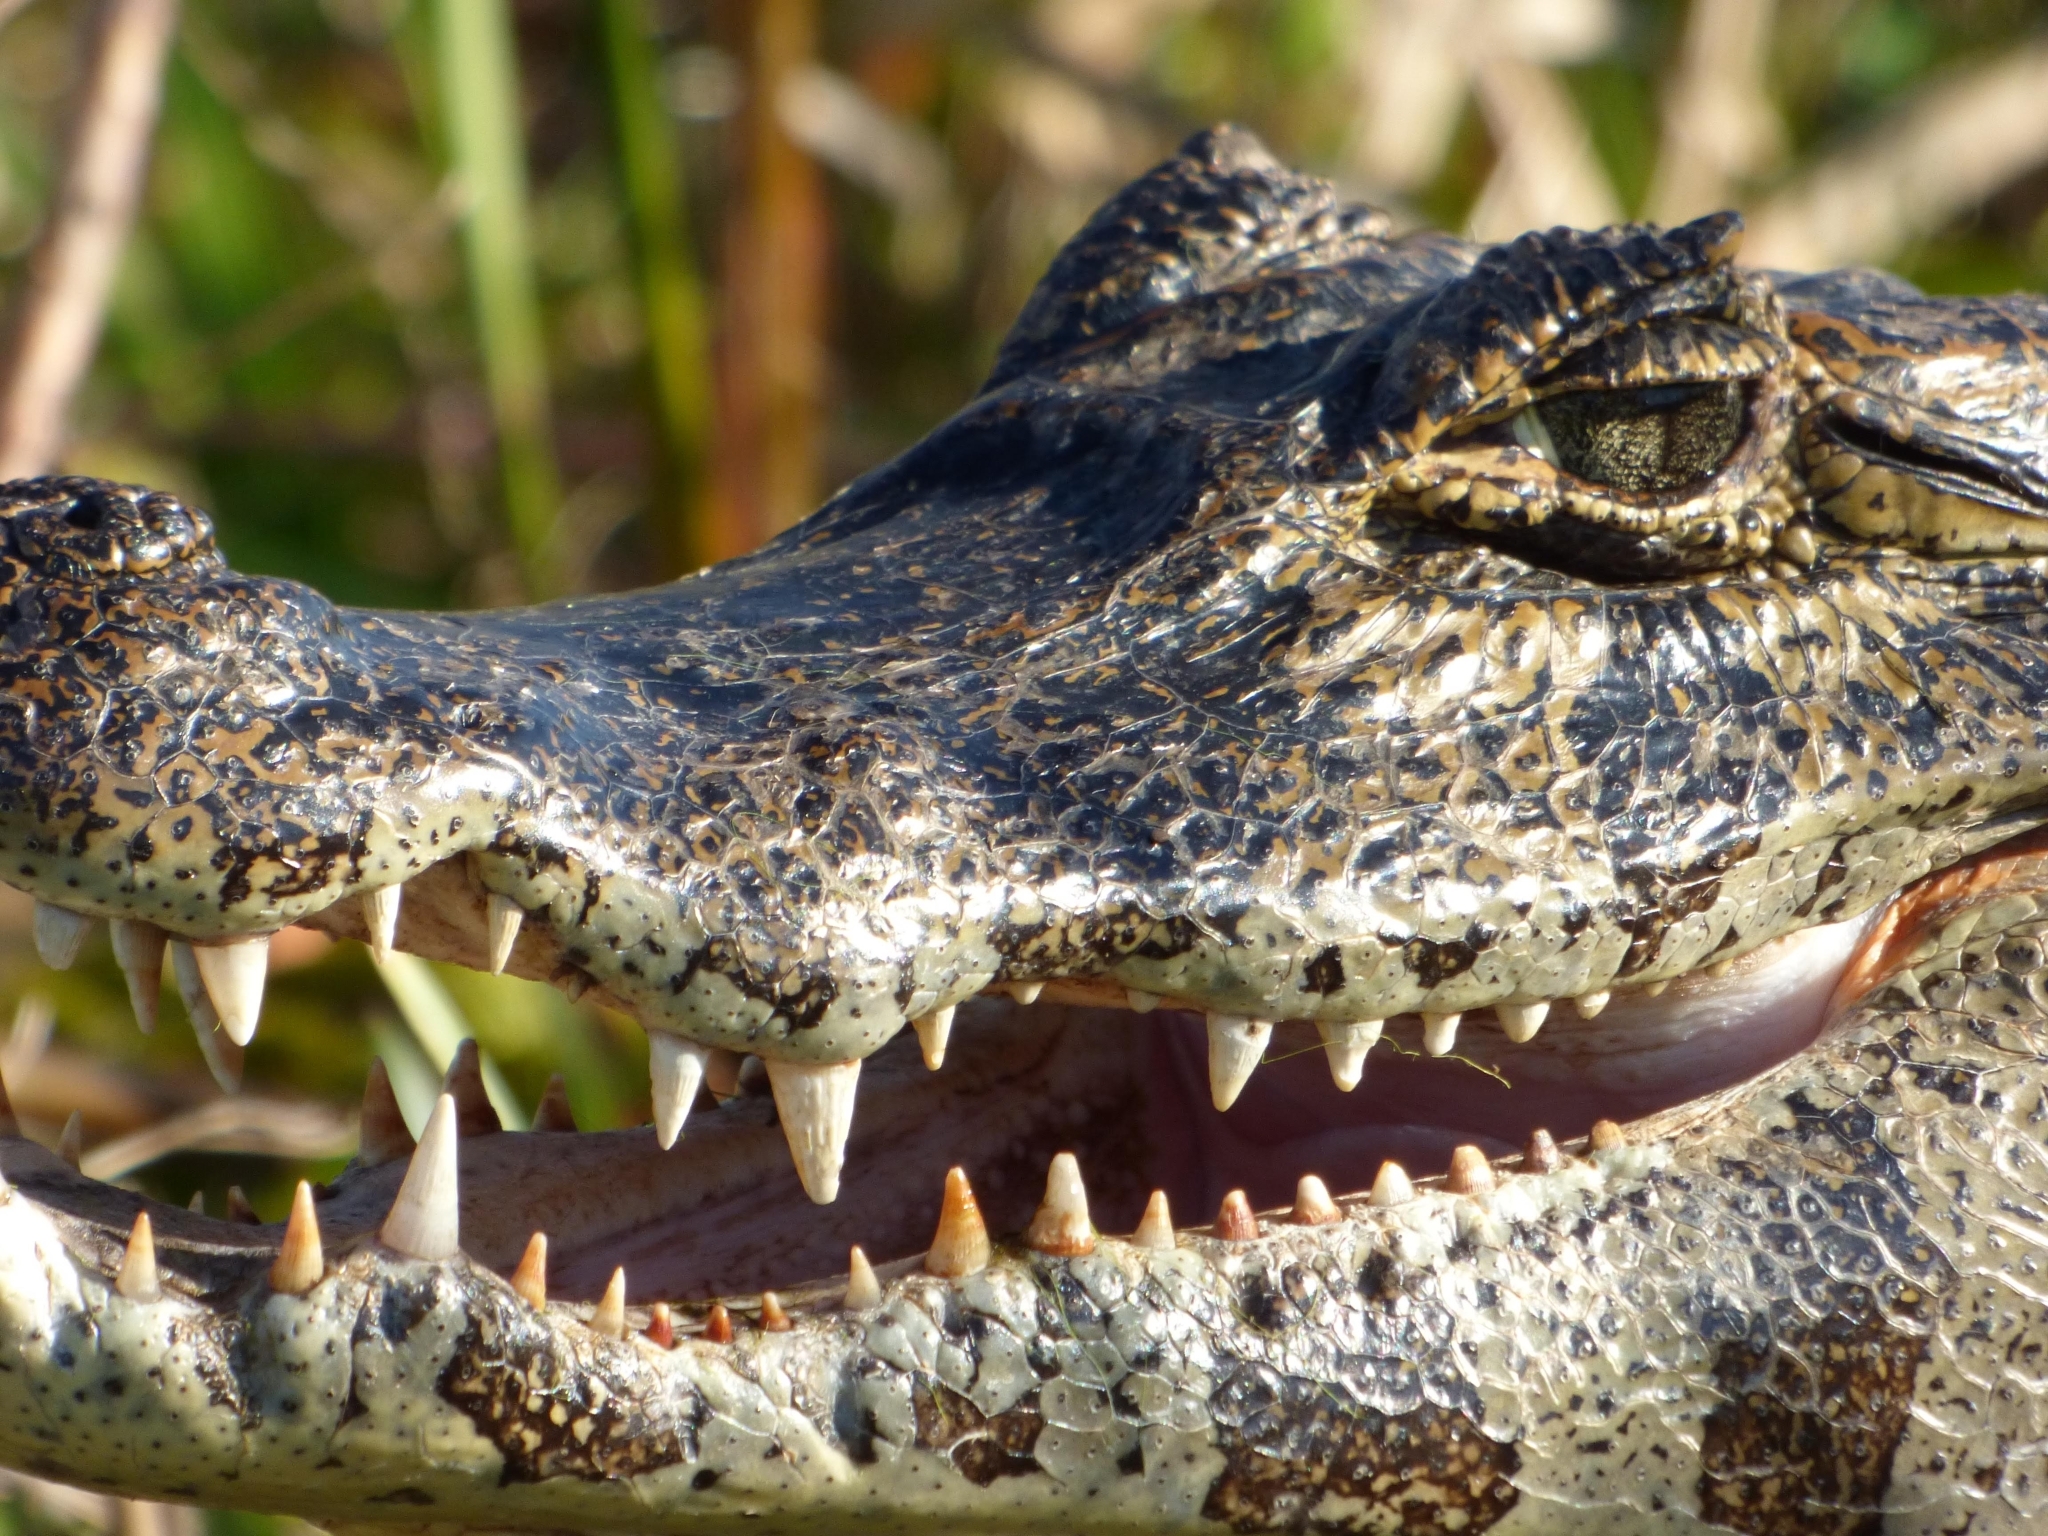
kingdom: Animalia
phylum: Chordata
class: Crocodylia
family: Alligatoridae
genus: Caiman
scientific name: Caiman yacare
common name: Yacare caiman
